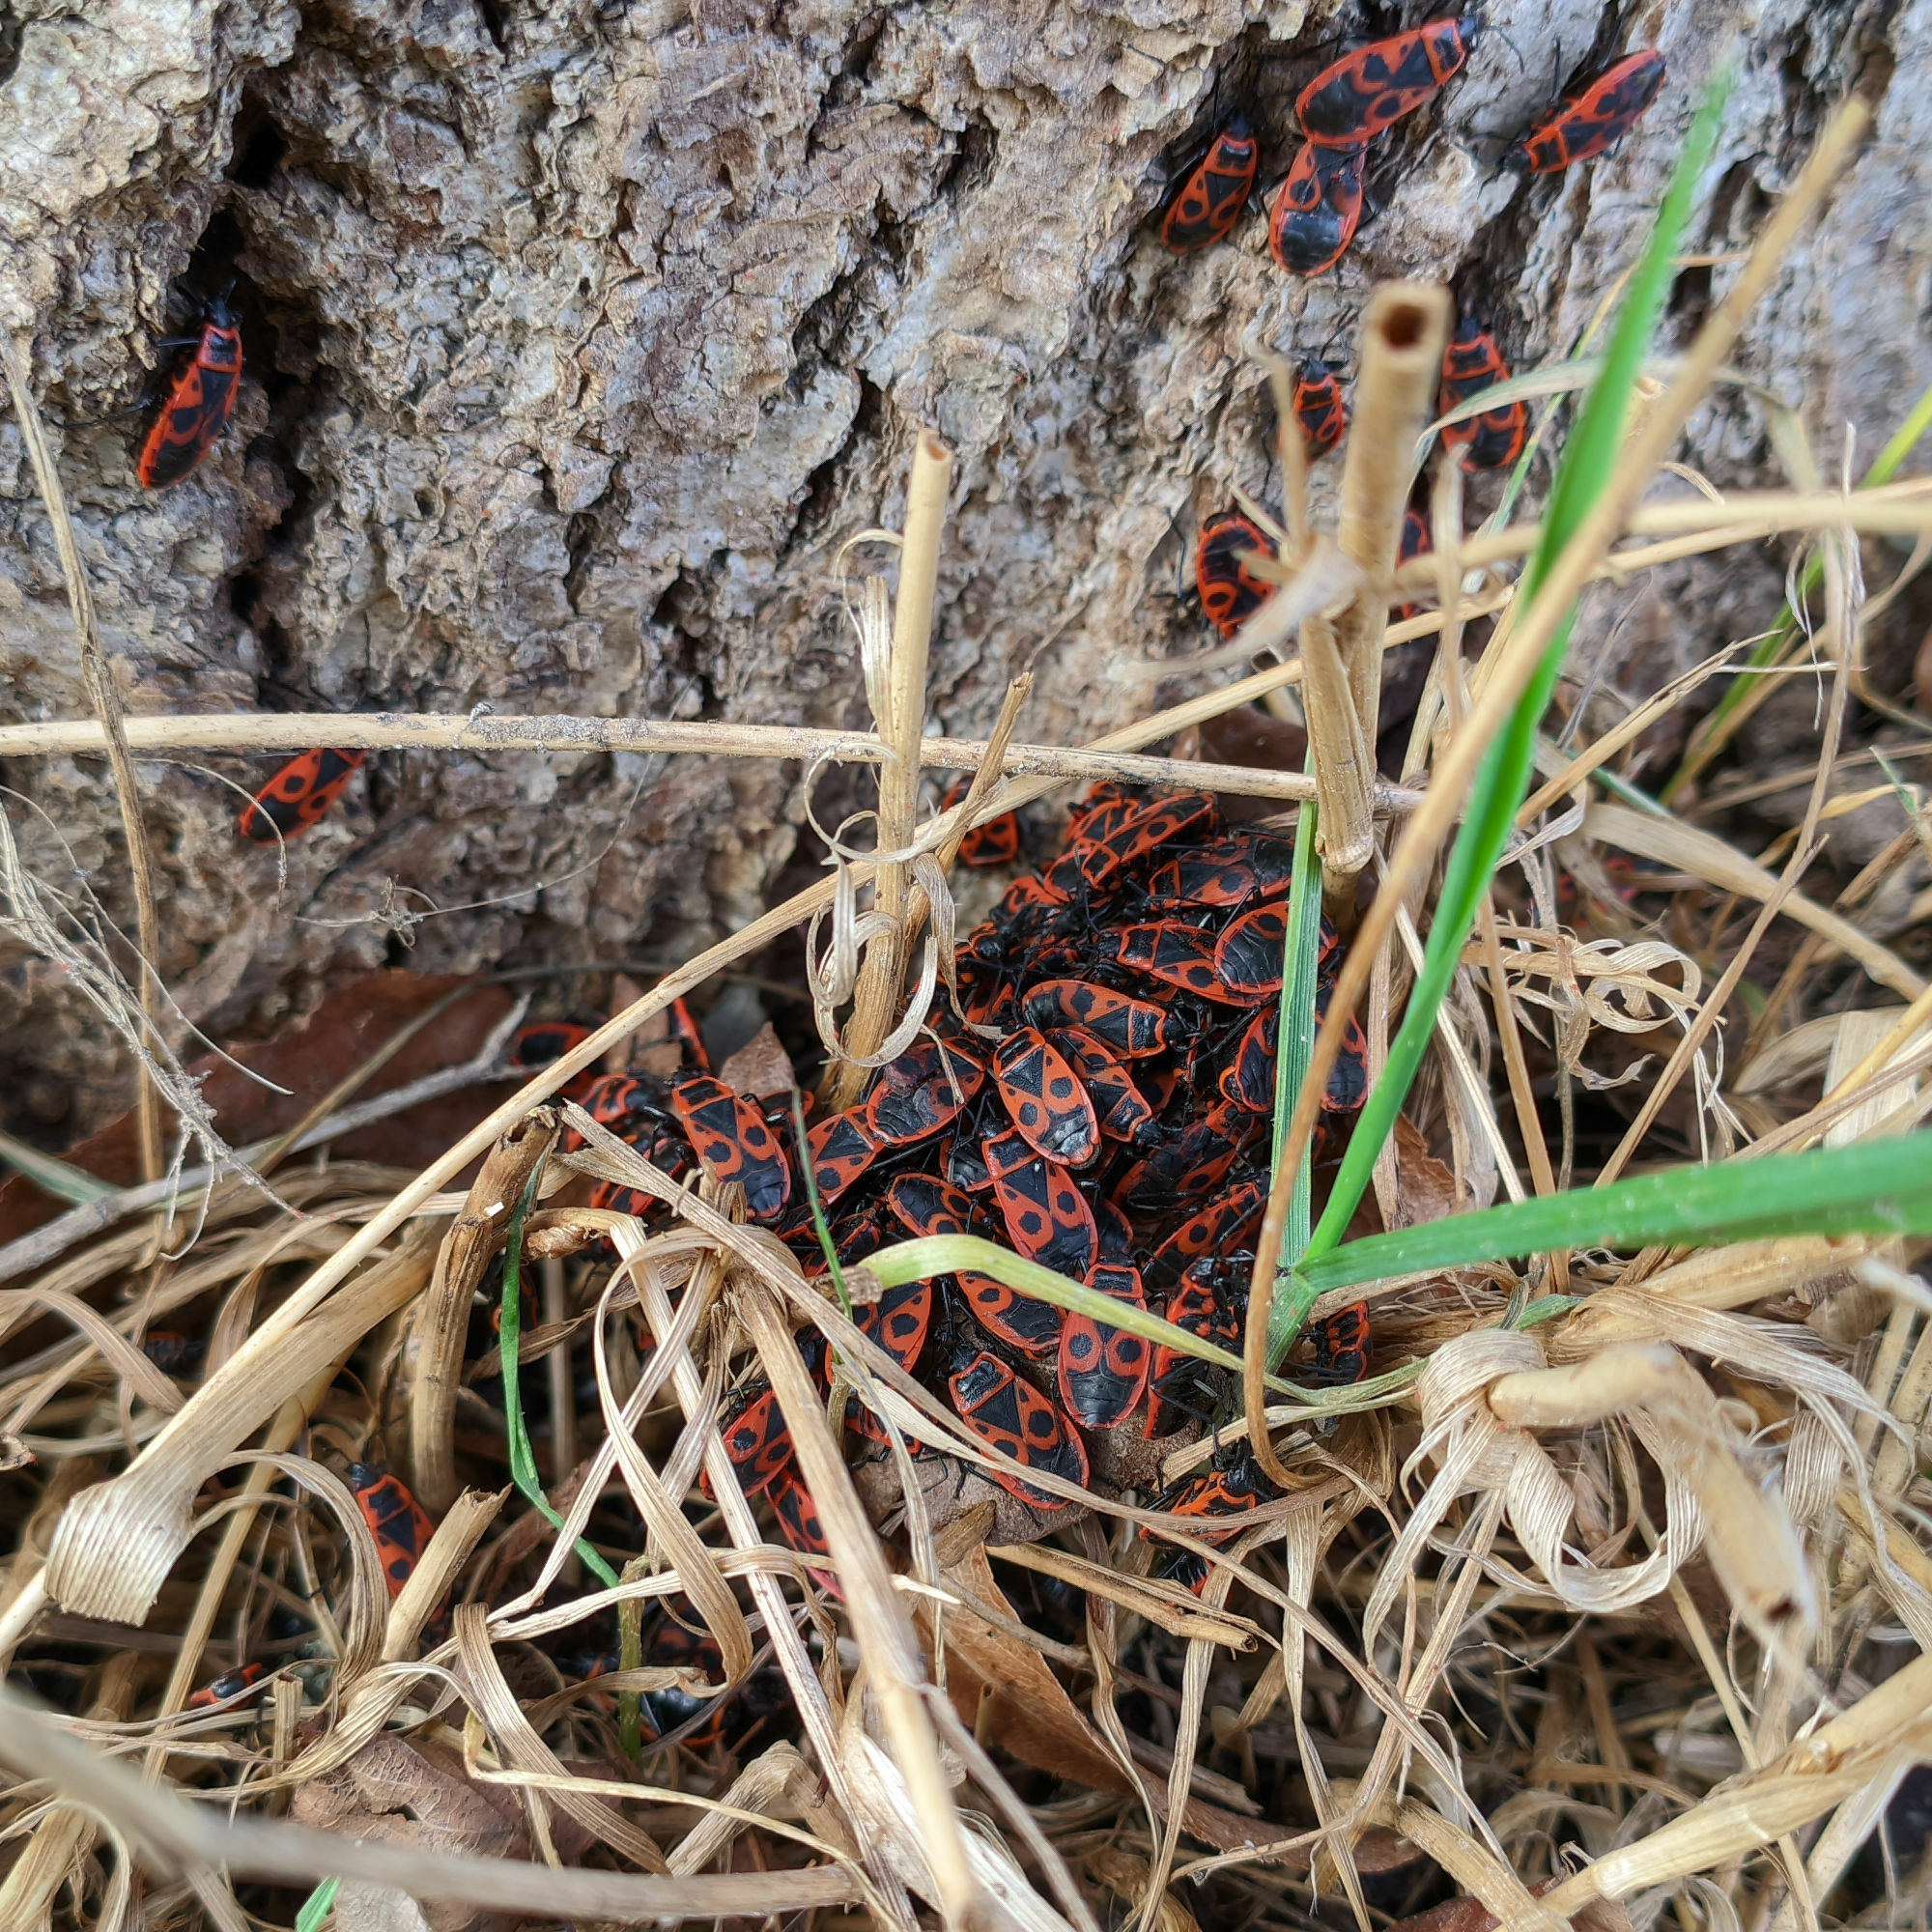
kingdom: Animalia
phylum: Arthropoda
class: Insecta
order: Hemiptera
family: Pyrrhocoridae
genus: Pyrrhocoris
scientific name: Pyrrhocoris apterus
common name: Firebug
